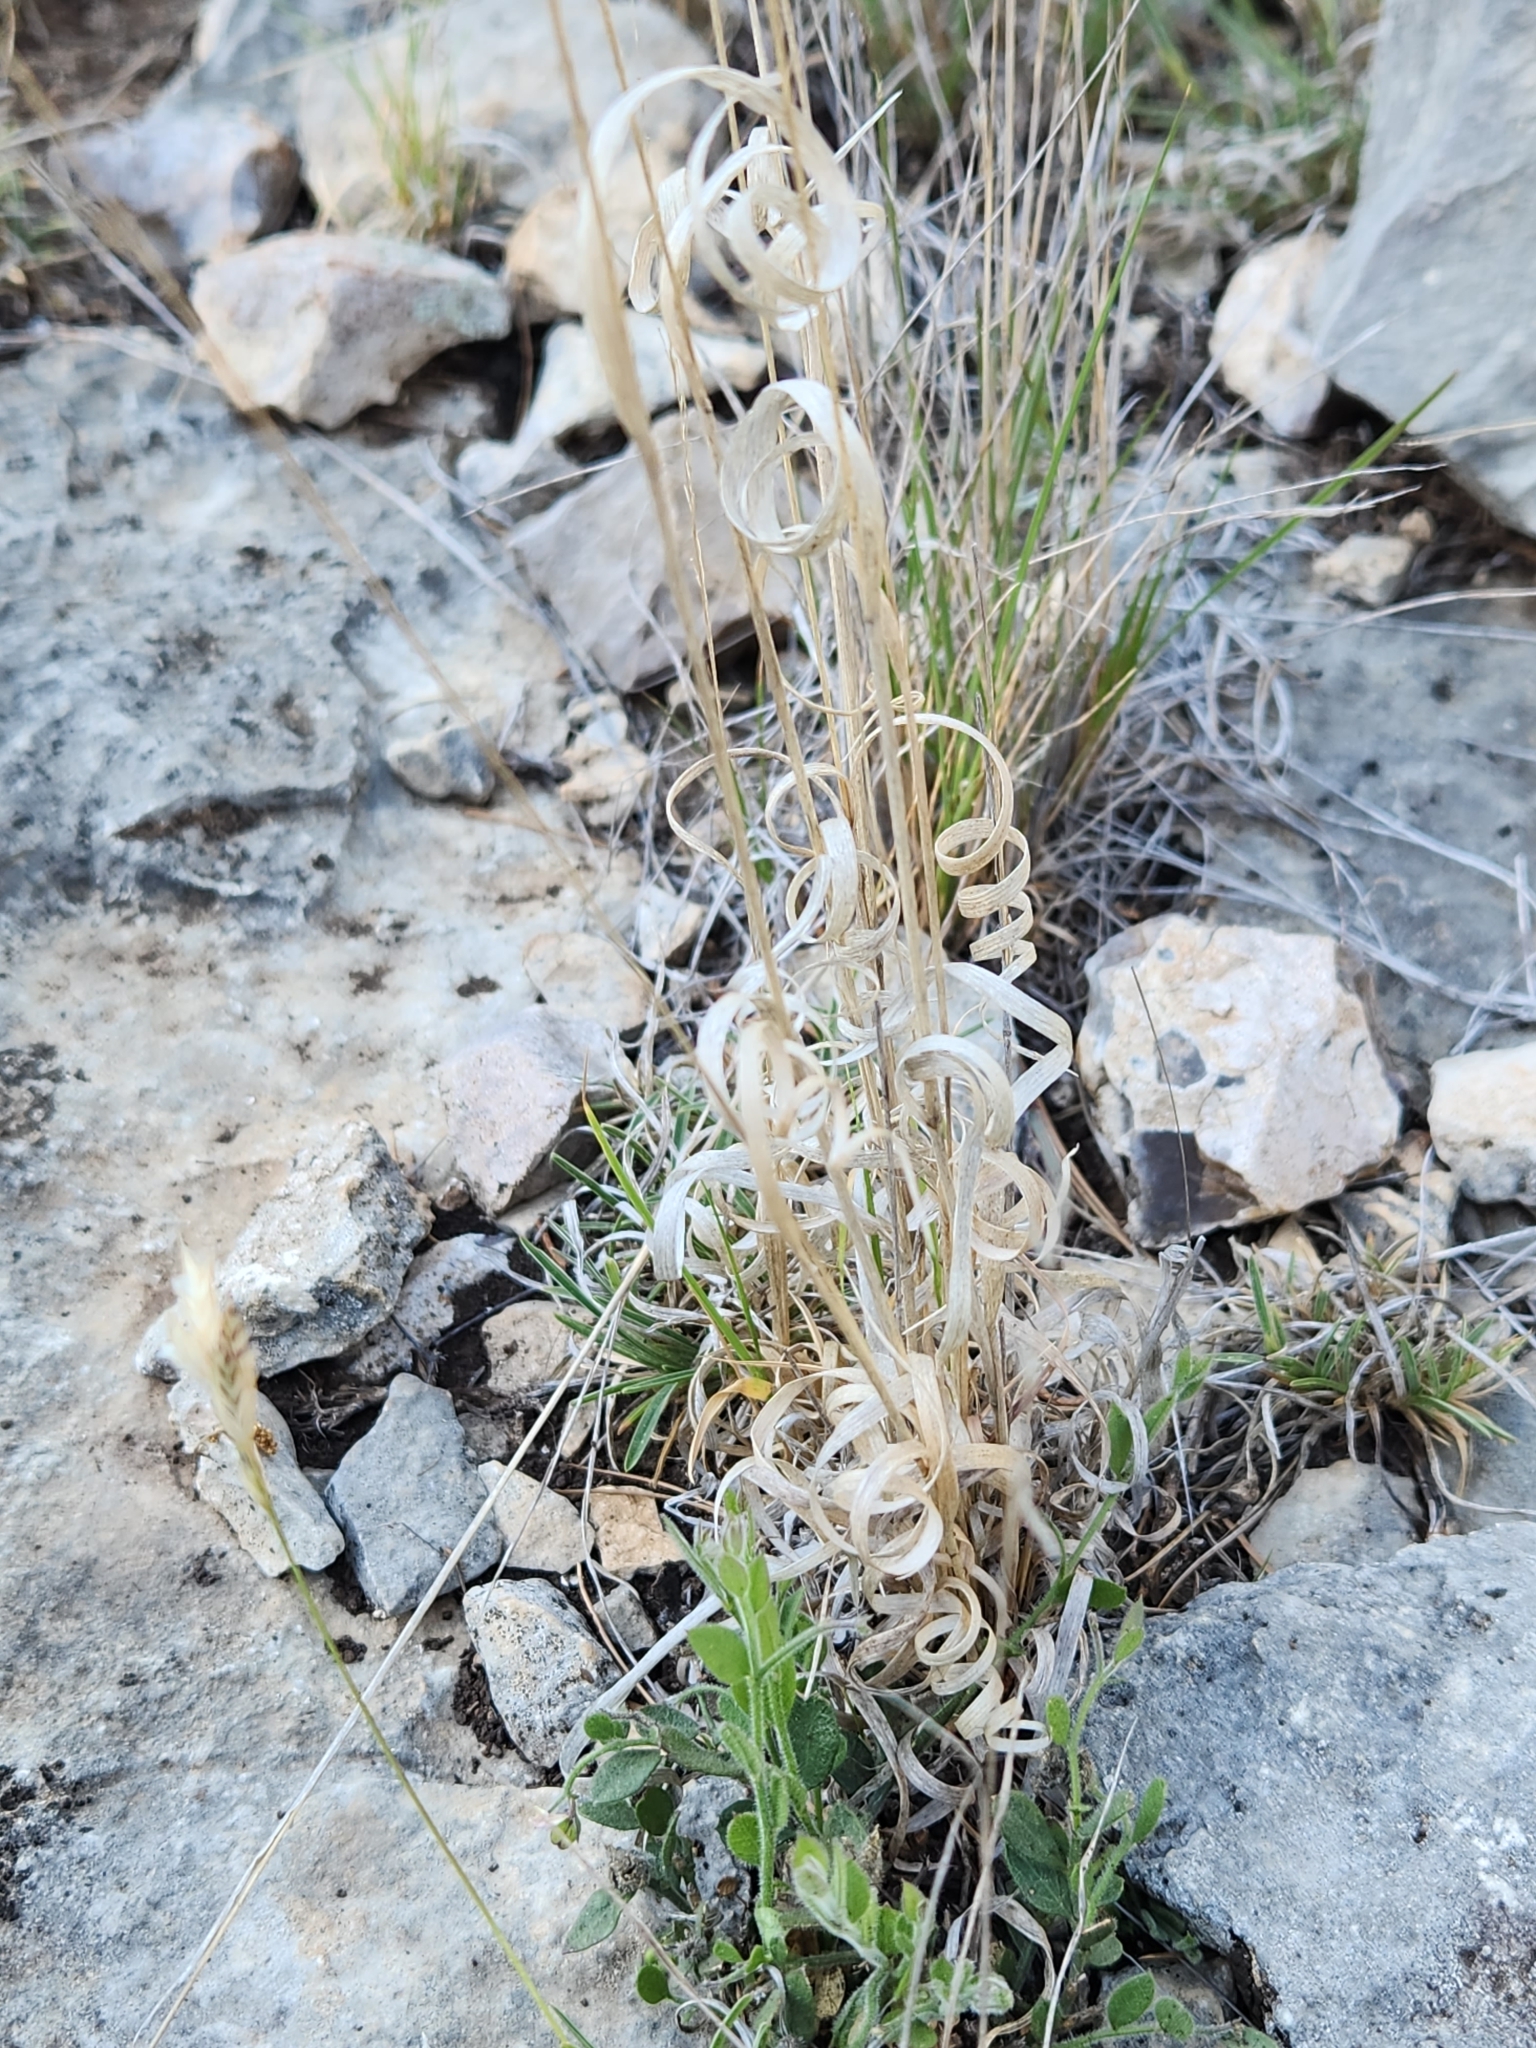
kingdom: Plantae
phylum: Tracheophyta
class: Liliopsida
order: Poales
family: Poaceae
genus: Panicum
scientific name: Panicum hallii
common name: Hall's witchgrass
